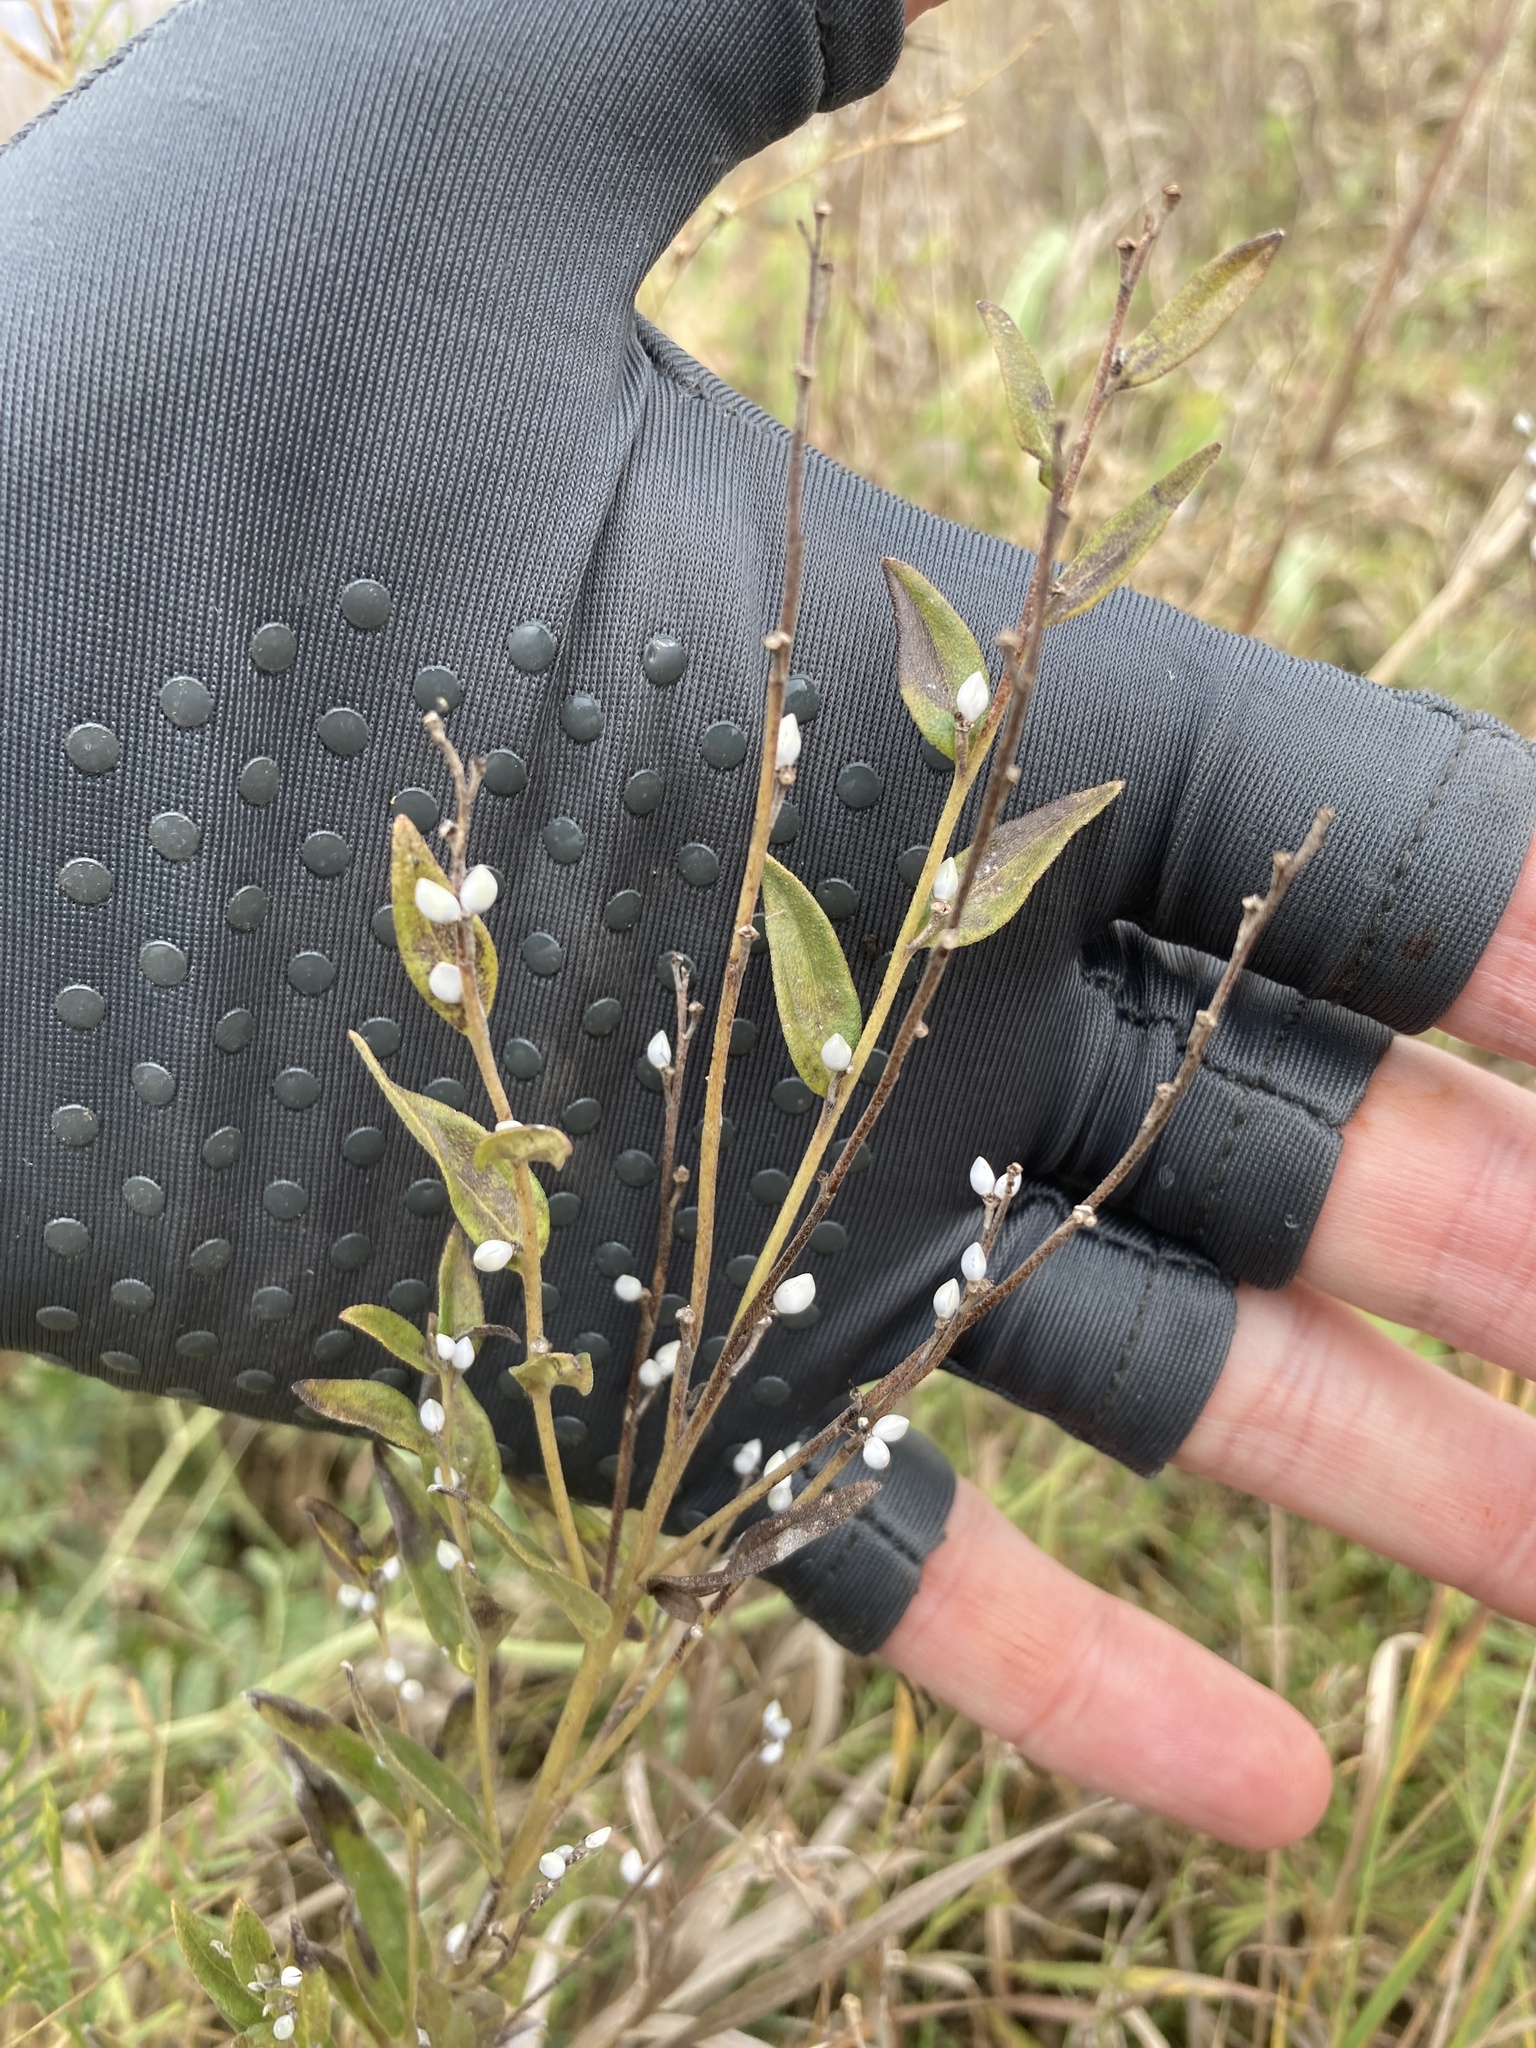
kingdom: Plantae
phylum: Tracheophyta
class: Magnoliopsida
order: Boraginales
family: Boraginaceae
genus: Lithospermum
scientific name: Lithospermum officinale
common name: Common gromwell
